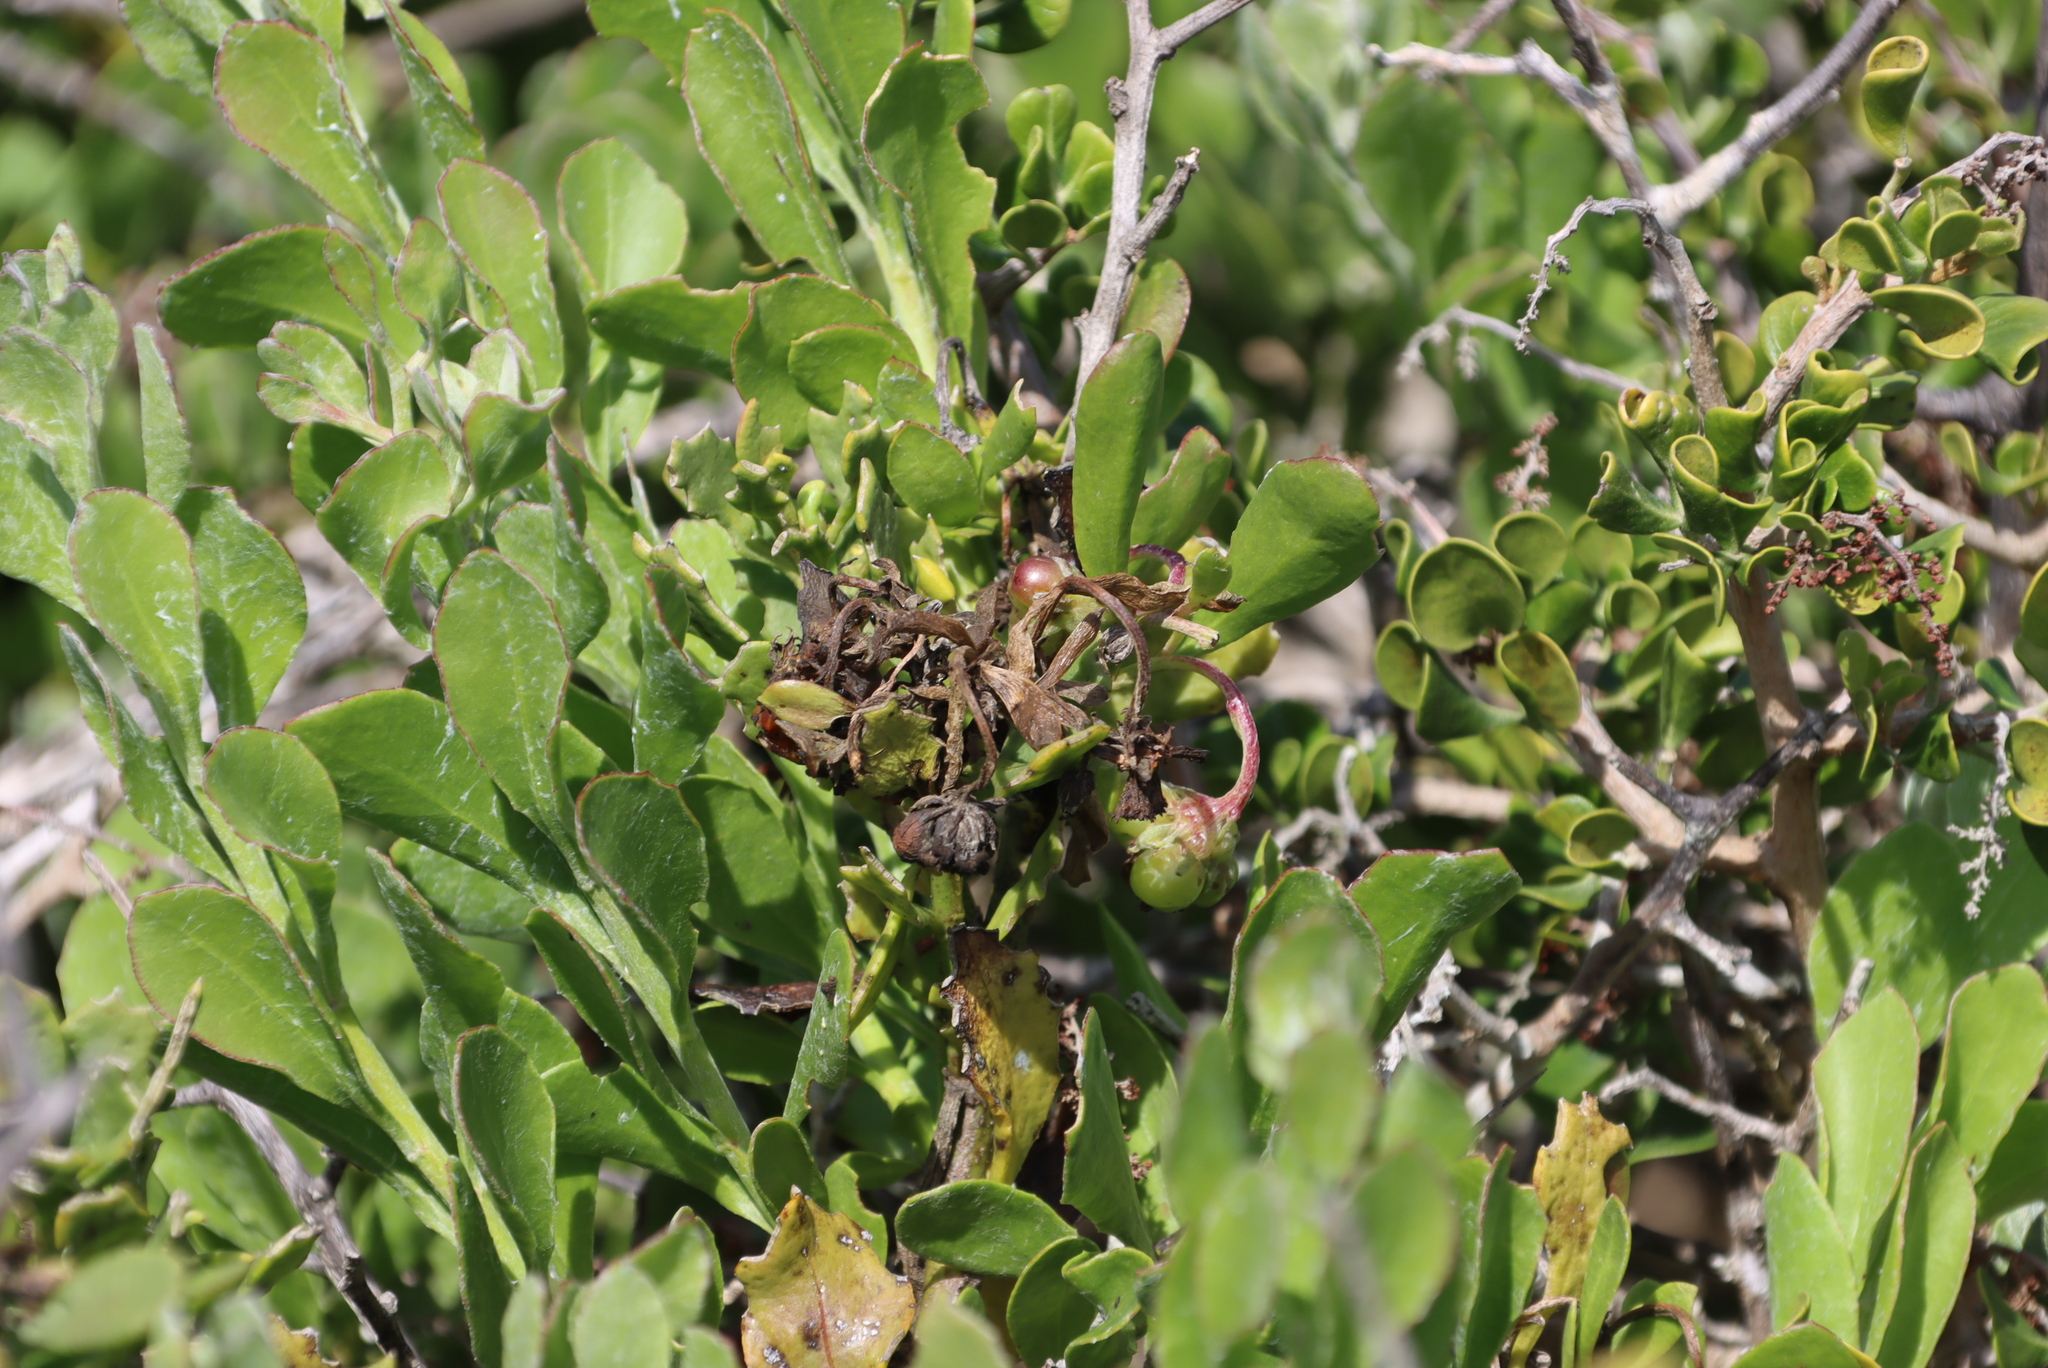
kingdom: Plantae
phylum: Tracheophyta
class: Magnoliopsida
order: Asterales
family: Asteraceae
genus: Osteospermum
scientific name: Osteospermum moniliferum
